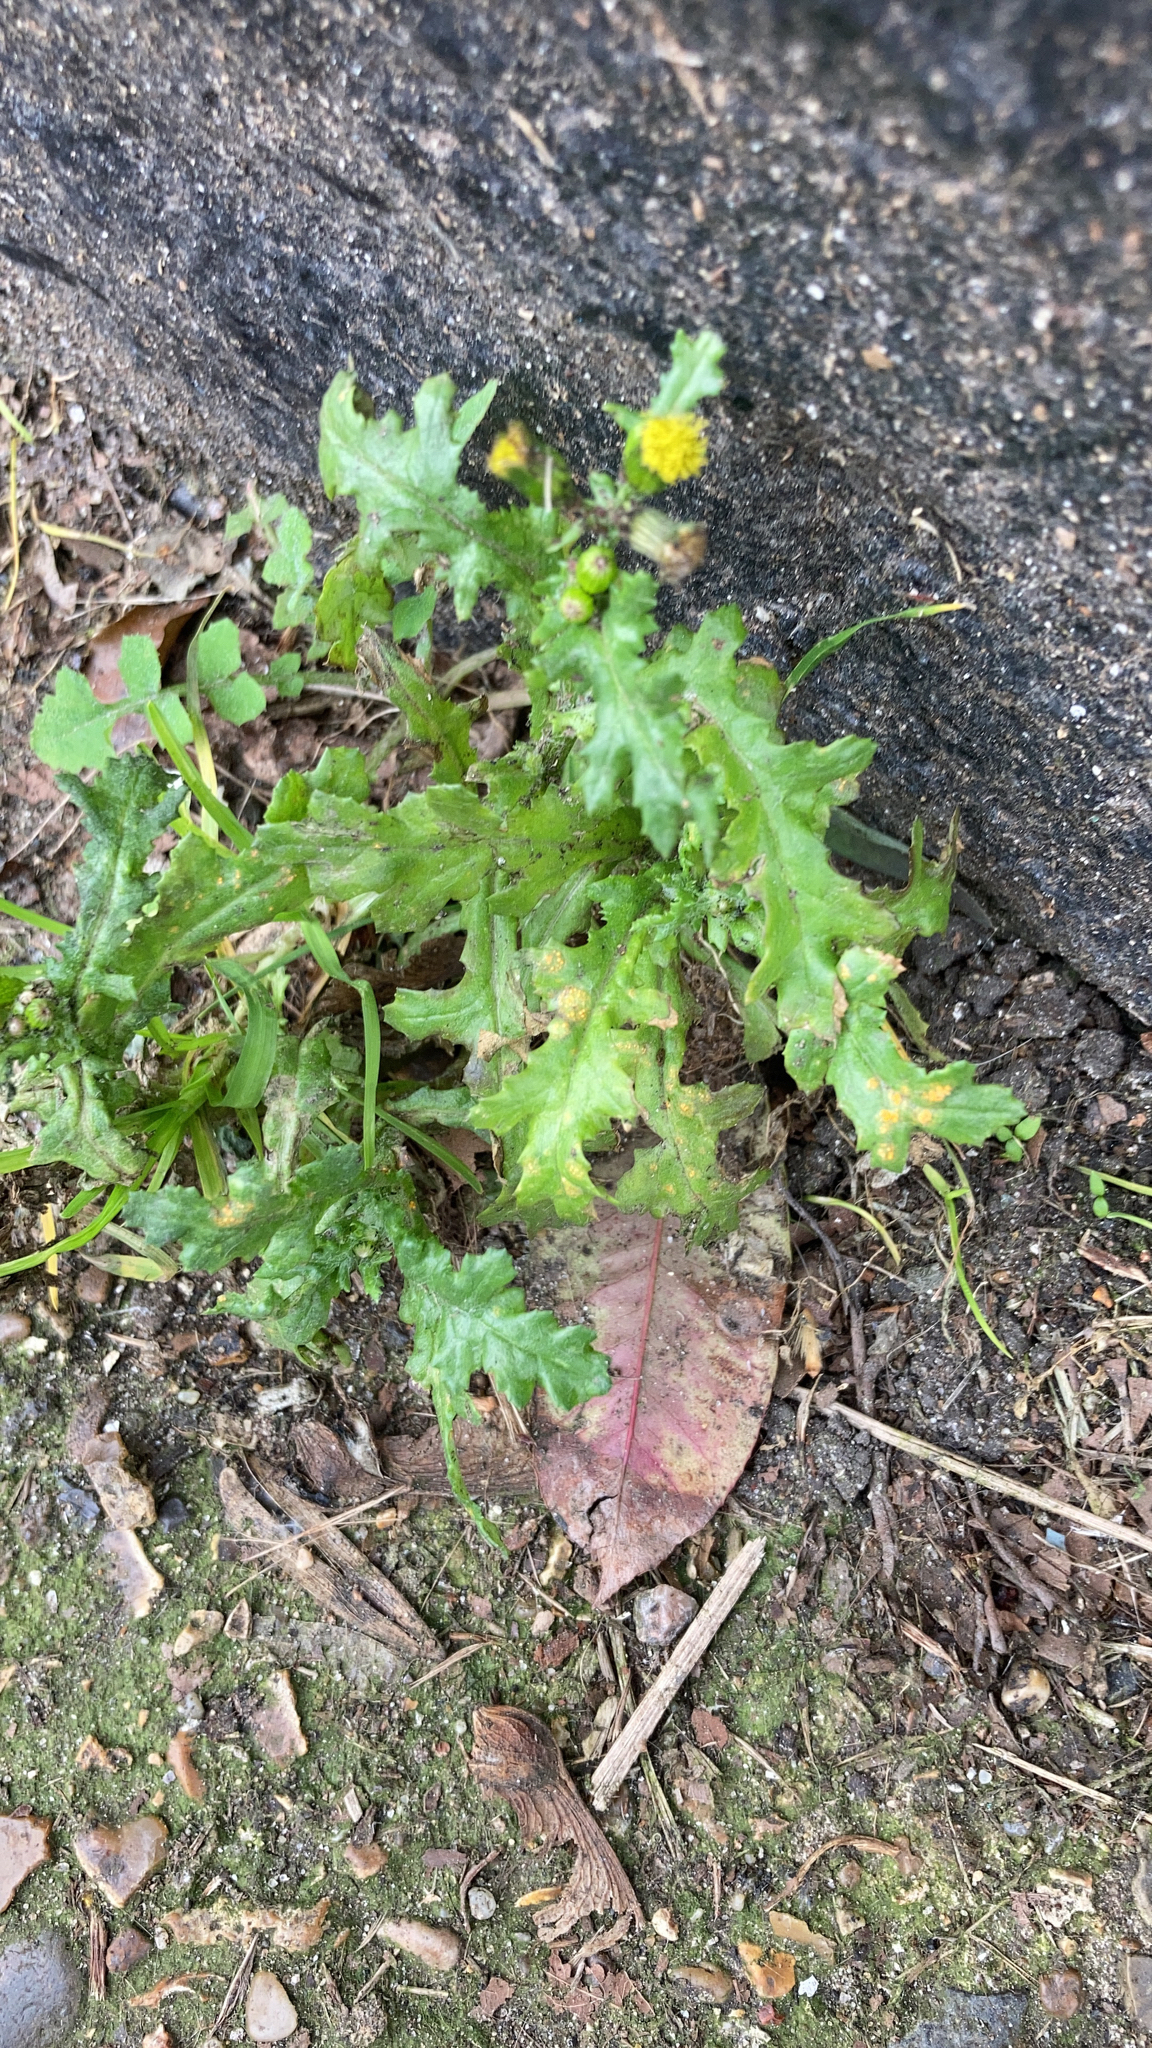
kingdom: Plantae
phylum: Tracheophyta
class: Magnoliopsida
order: Asterales
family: Asteraceae
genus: Senecio
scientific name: Senecio vulgaris
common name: Old-man-in-the-spring
